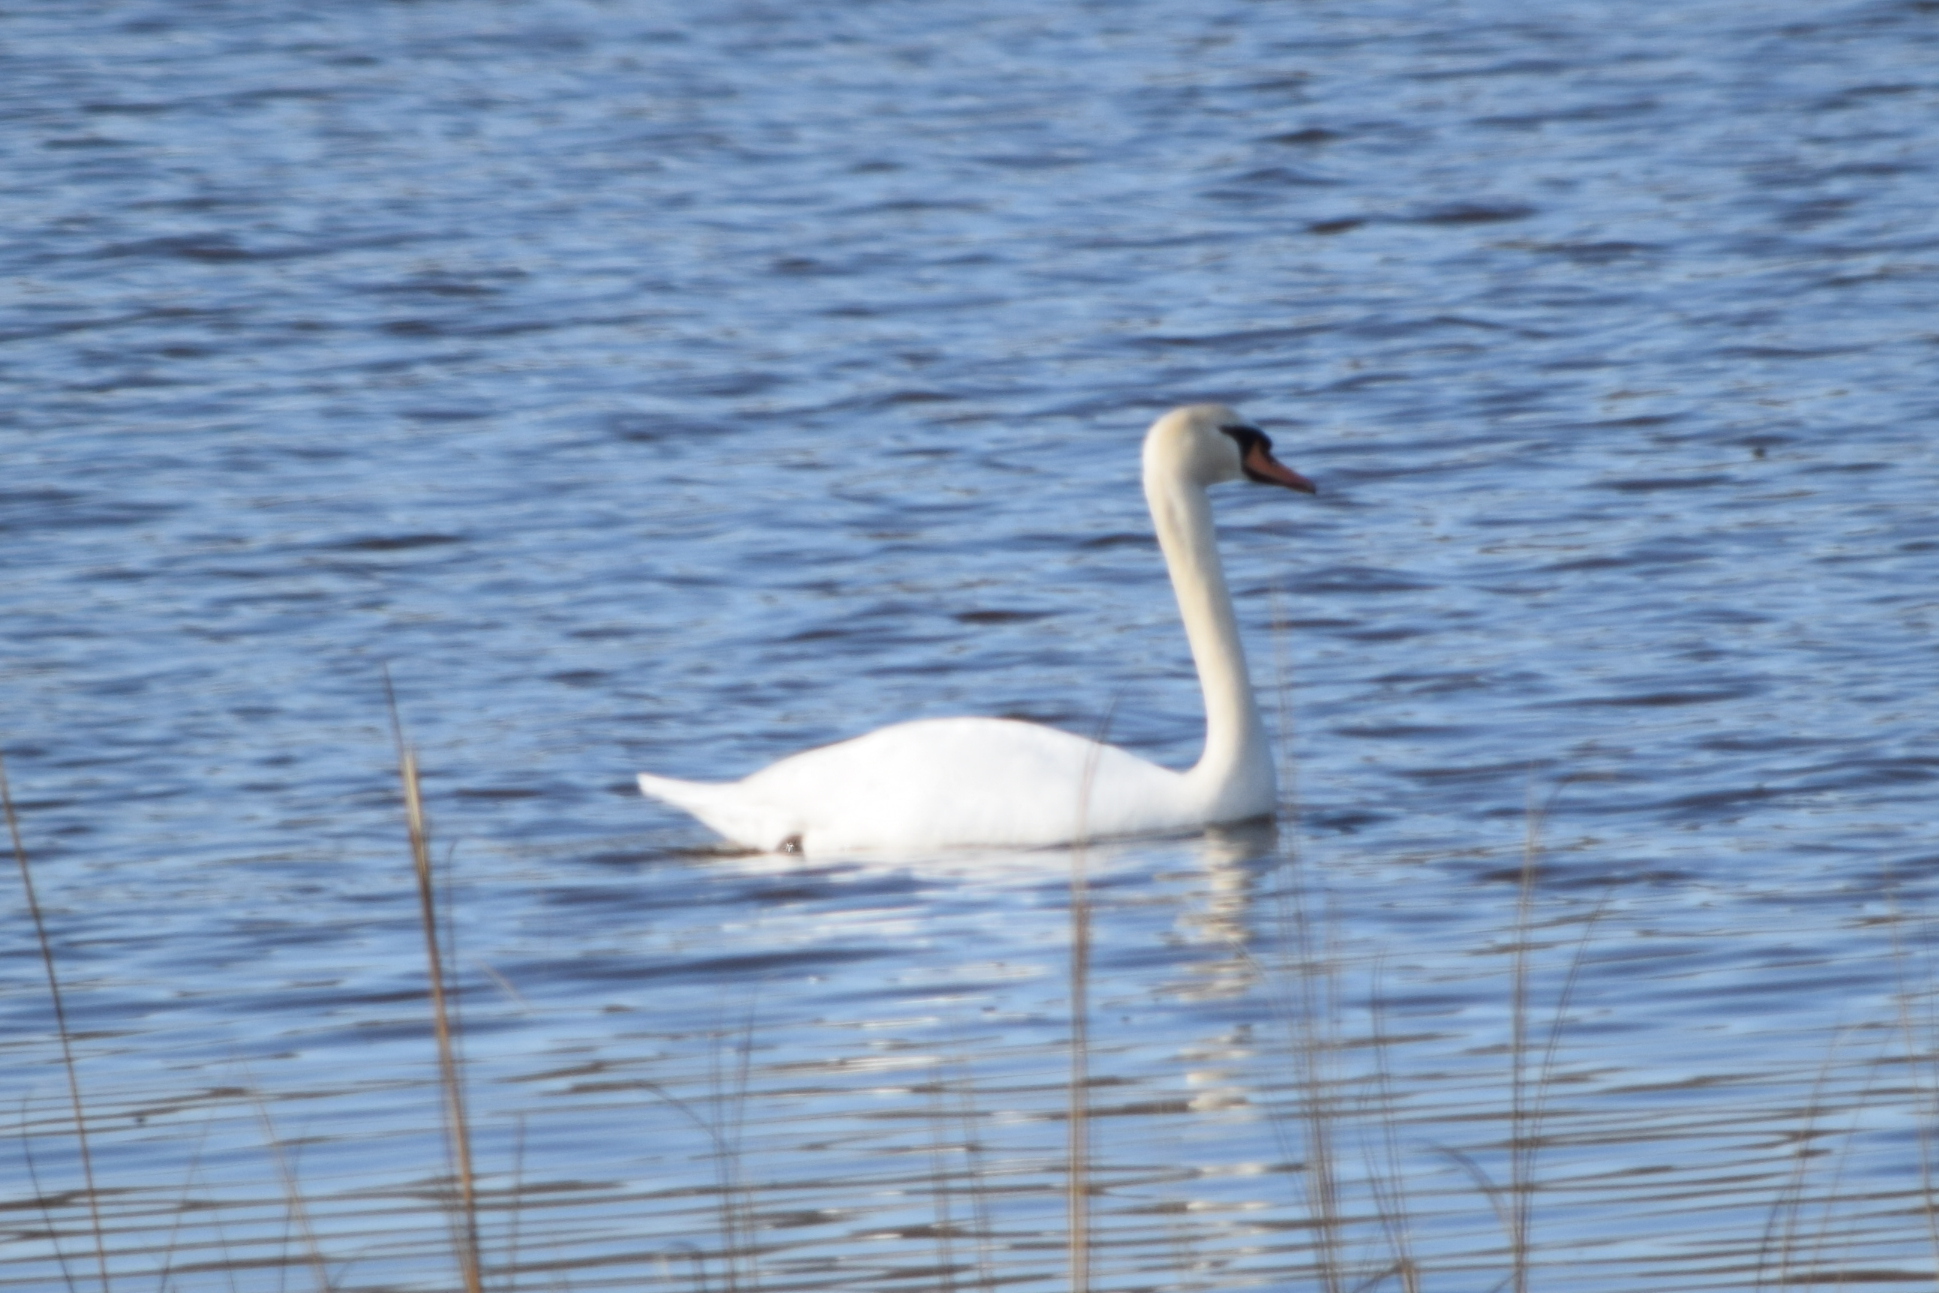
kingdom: Animalia
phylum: Chordata
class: Aves
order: Anseriformes
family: Anatidae
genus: Cygnus
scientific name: Cygnus olor
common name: Mute swan
